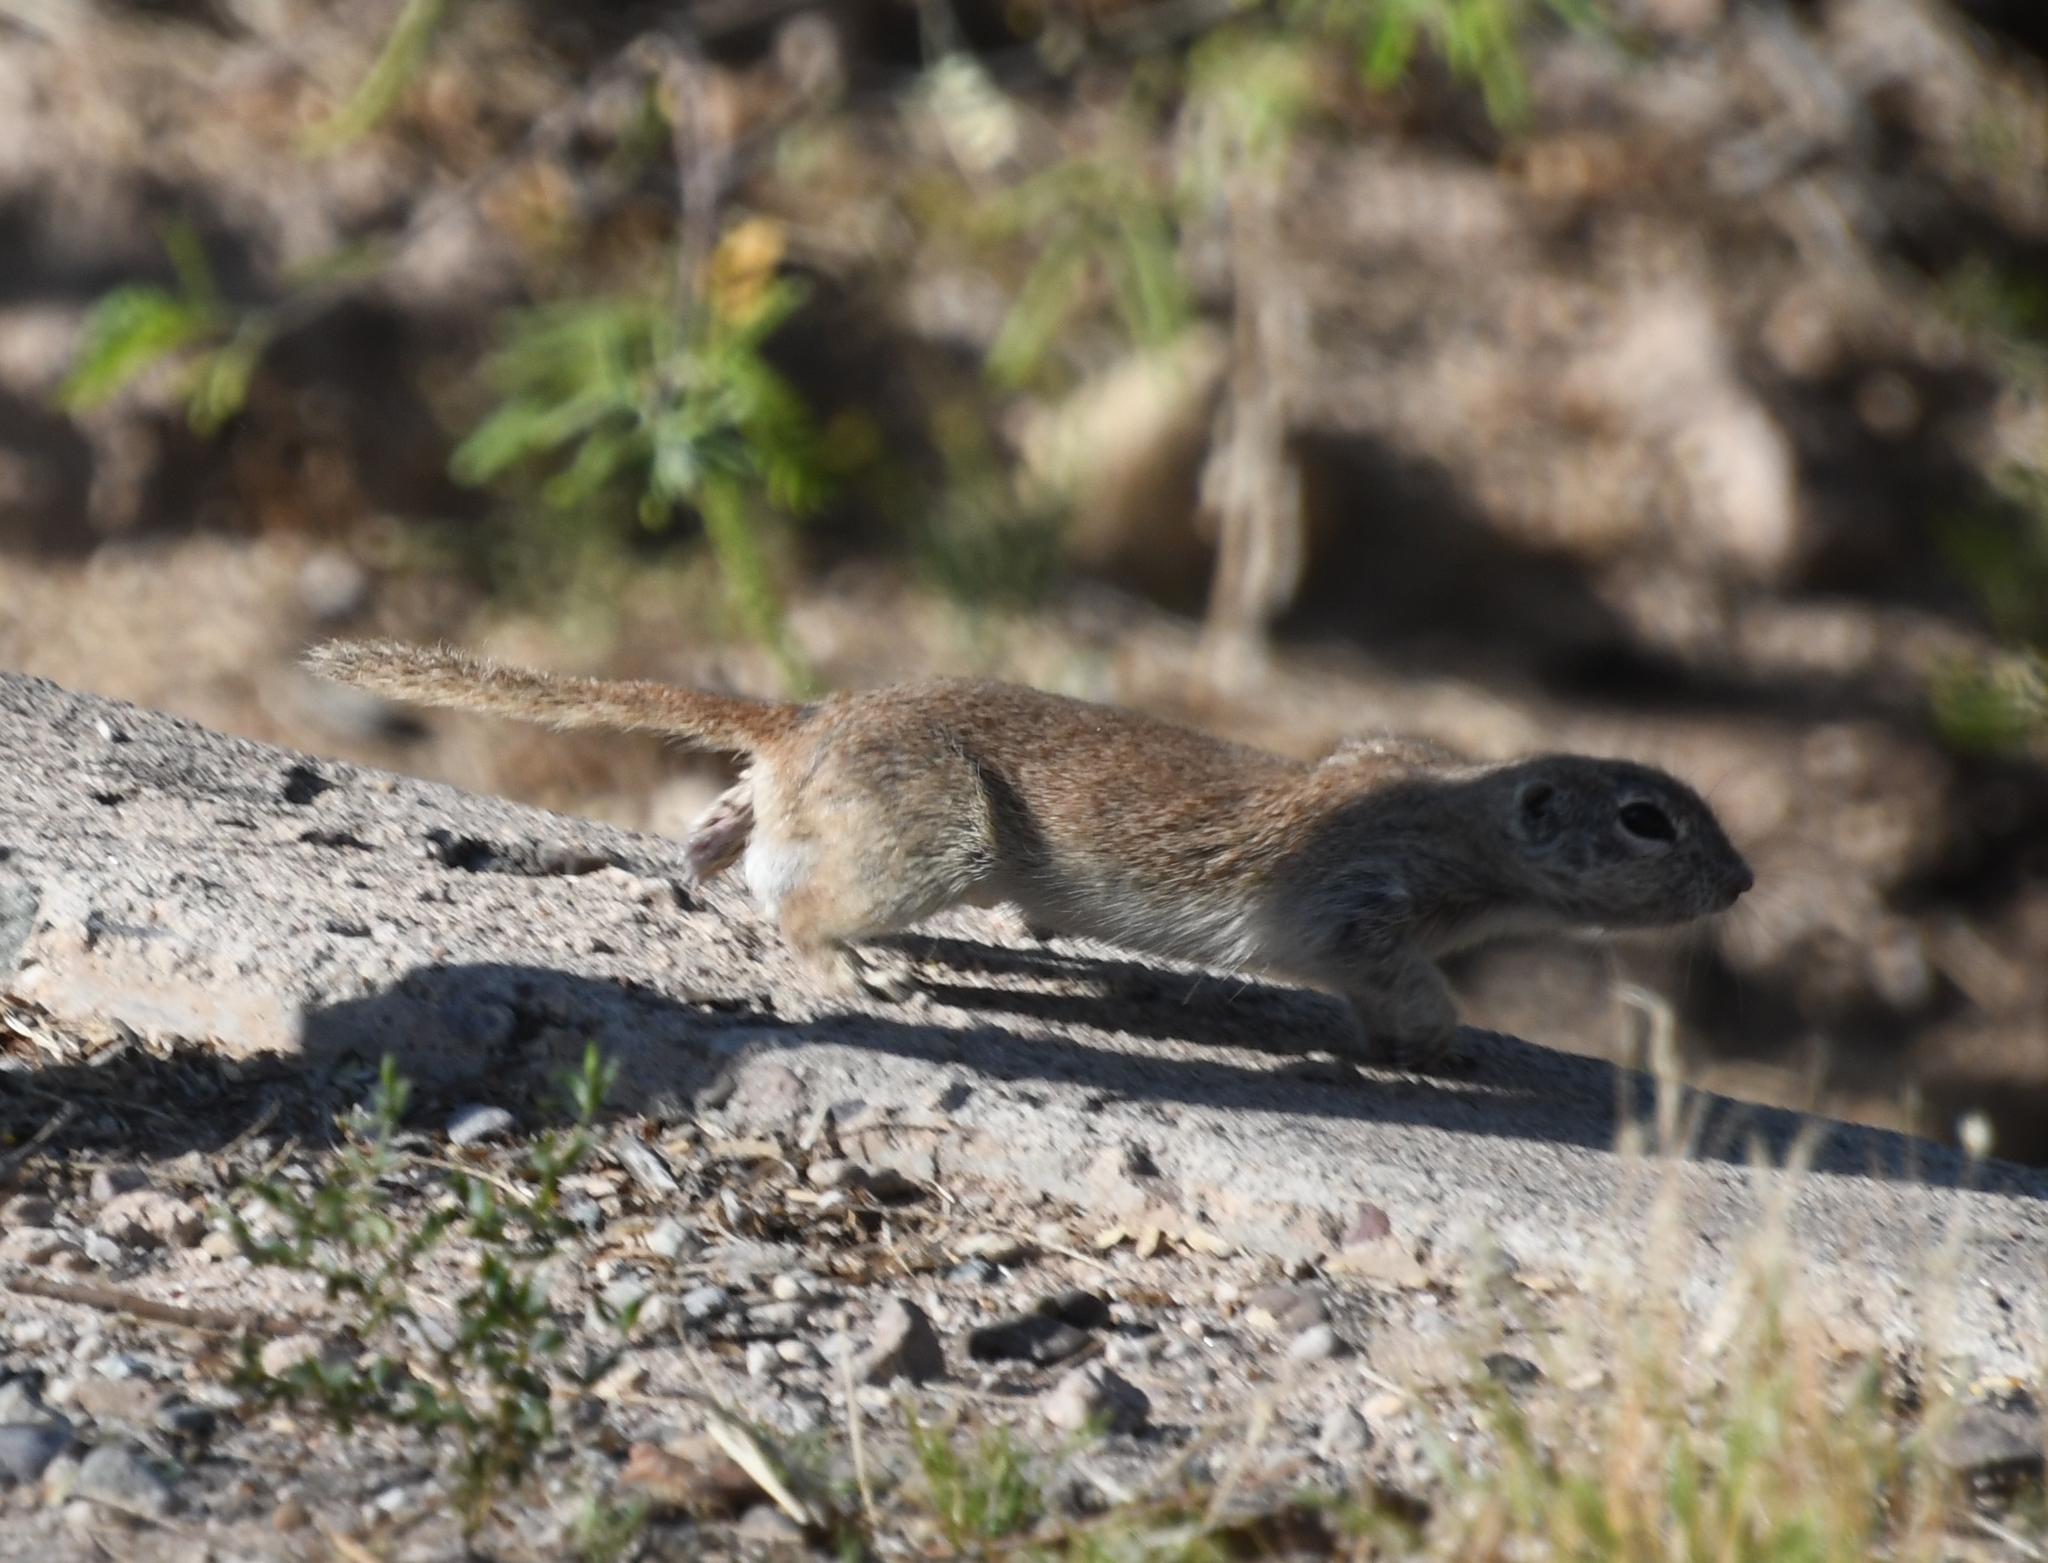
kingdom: Animalia
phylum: Chordata
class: Mammalia
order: Rodentia
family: Sciuridae
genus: Xerospermophilus
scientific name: Xerospermophilus tereticaudus
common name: Round-tailed ground squirrel
